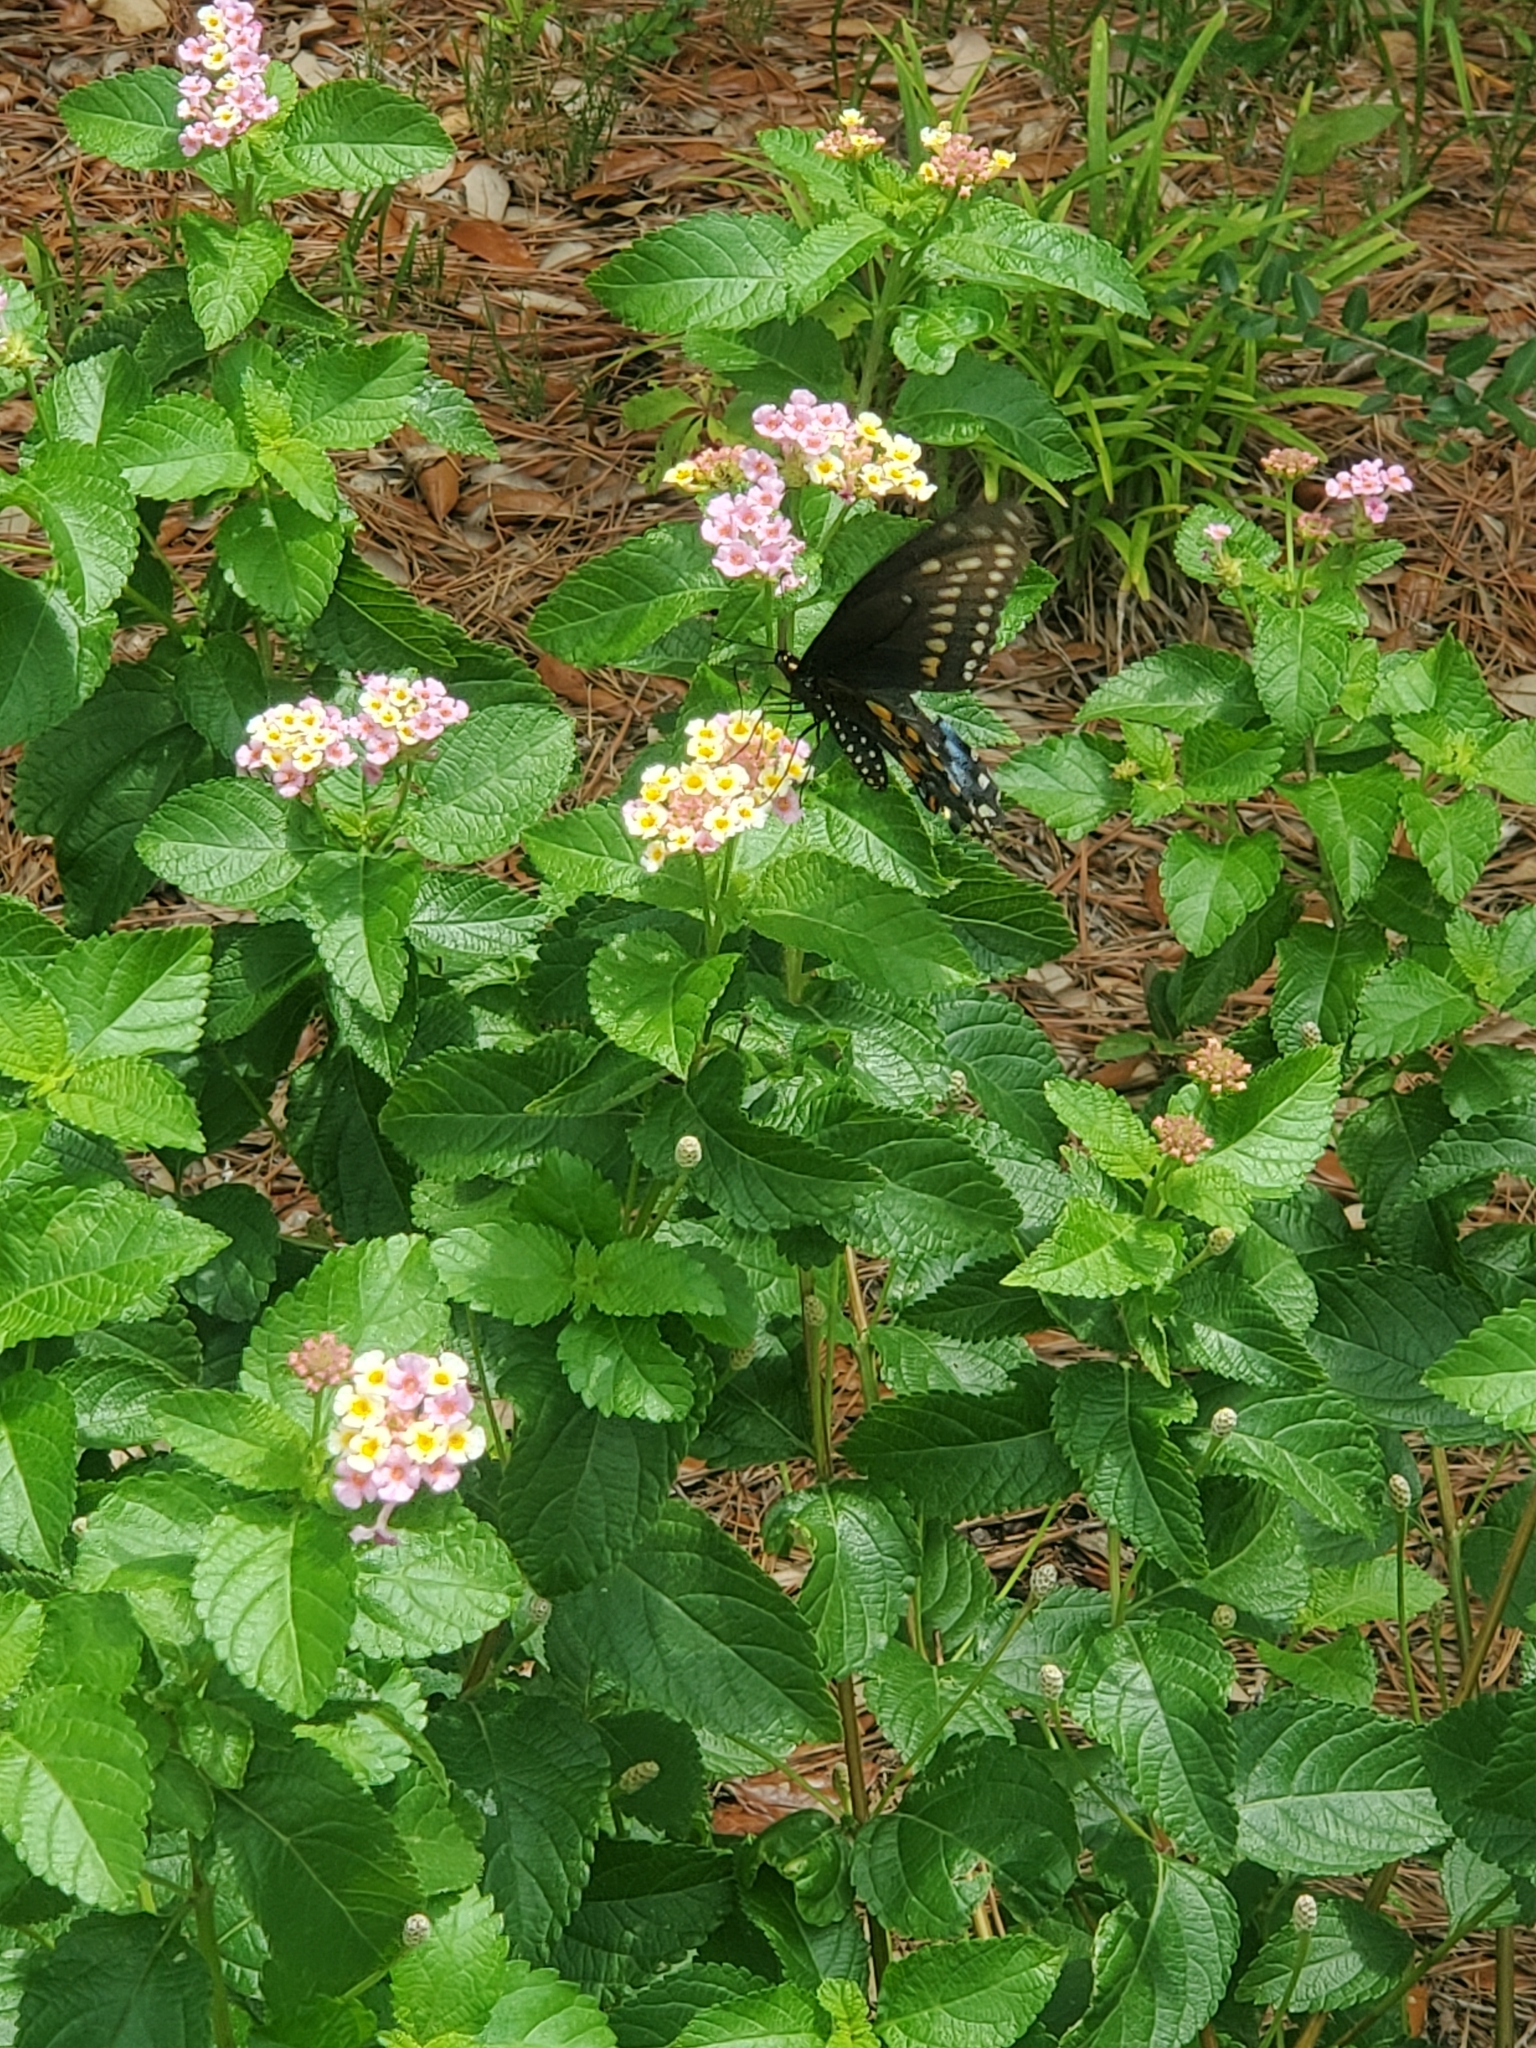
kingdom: Animalia
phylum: Arthropoda
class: Insecta
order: Lepidoptera
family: Papilionidae
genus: Papilio
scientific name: Papilio polyxenes
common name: Black swallowtail
